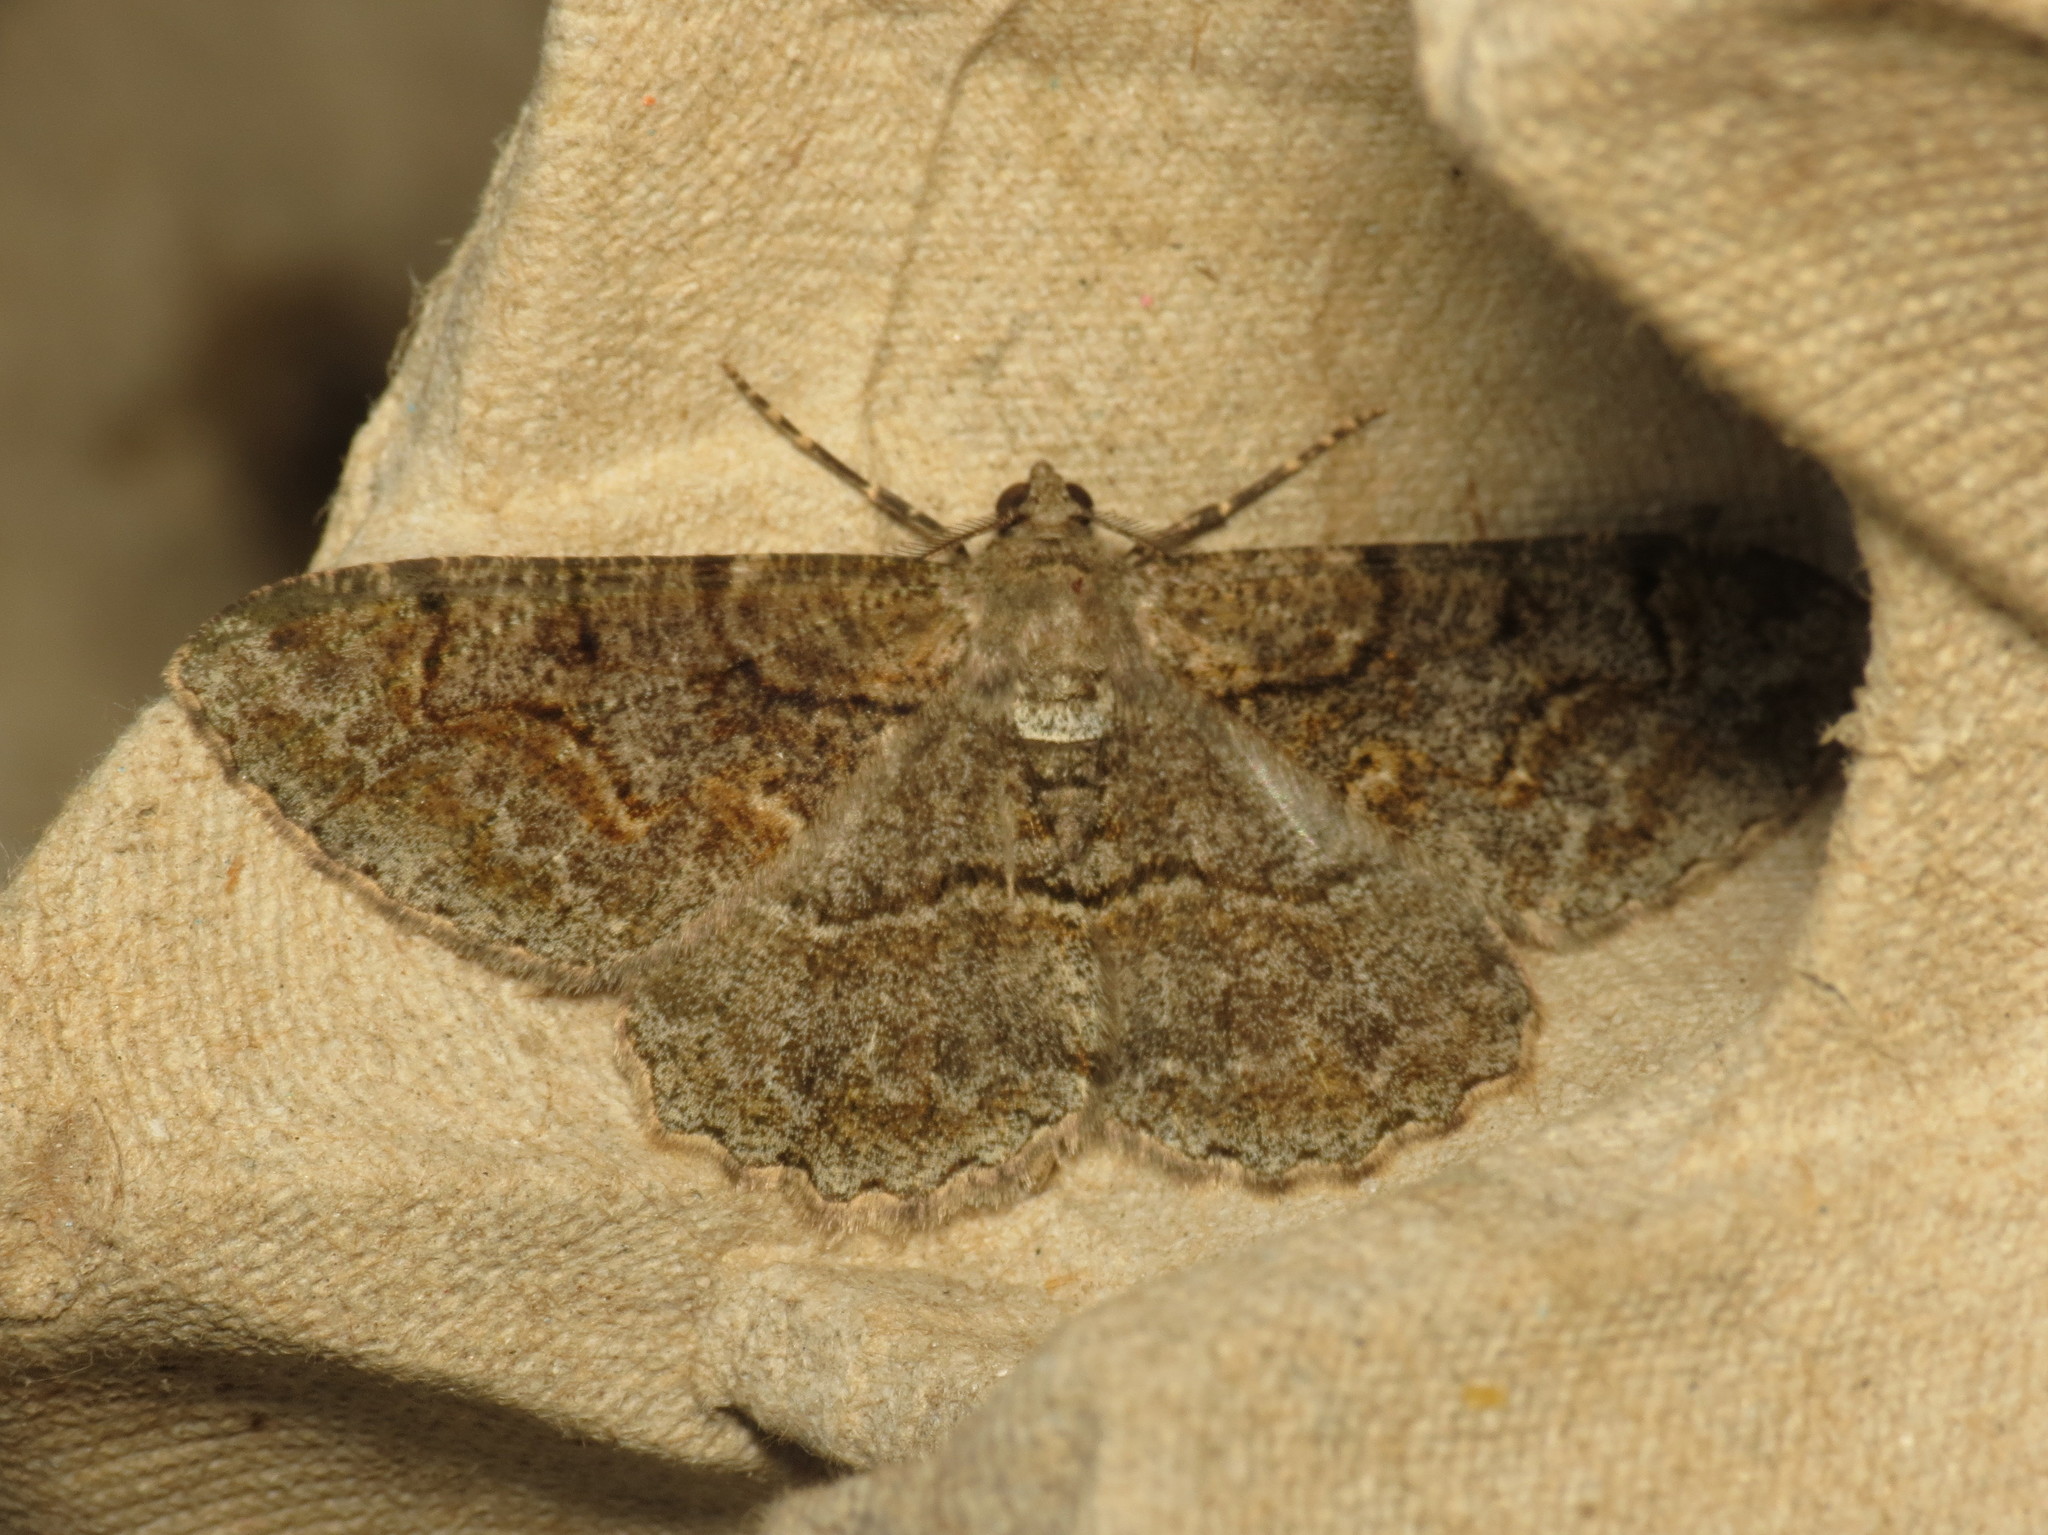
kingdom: Animalia
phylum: Arthropoda
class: Insecta
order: Lepidoptera
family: Geometridae
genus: Alcis
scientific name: Alcis repandata
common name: Mottled beauty
